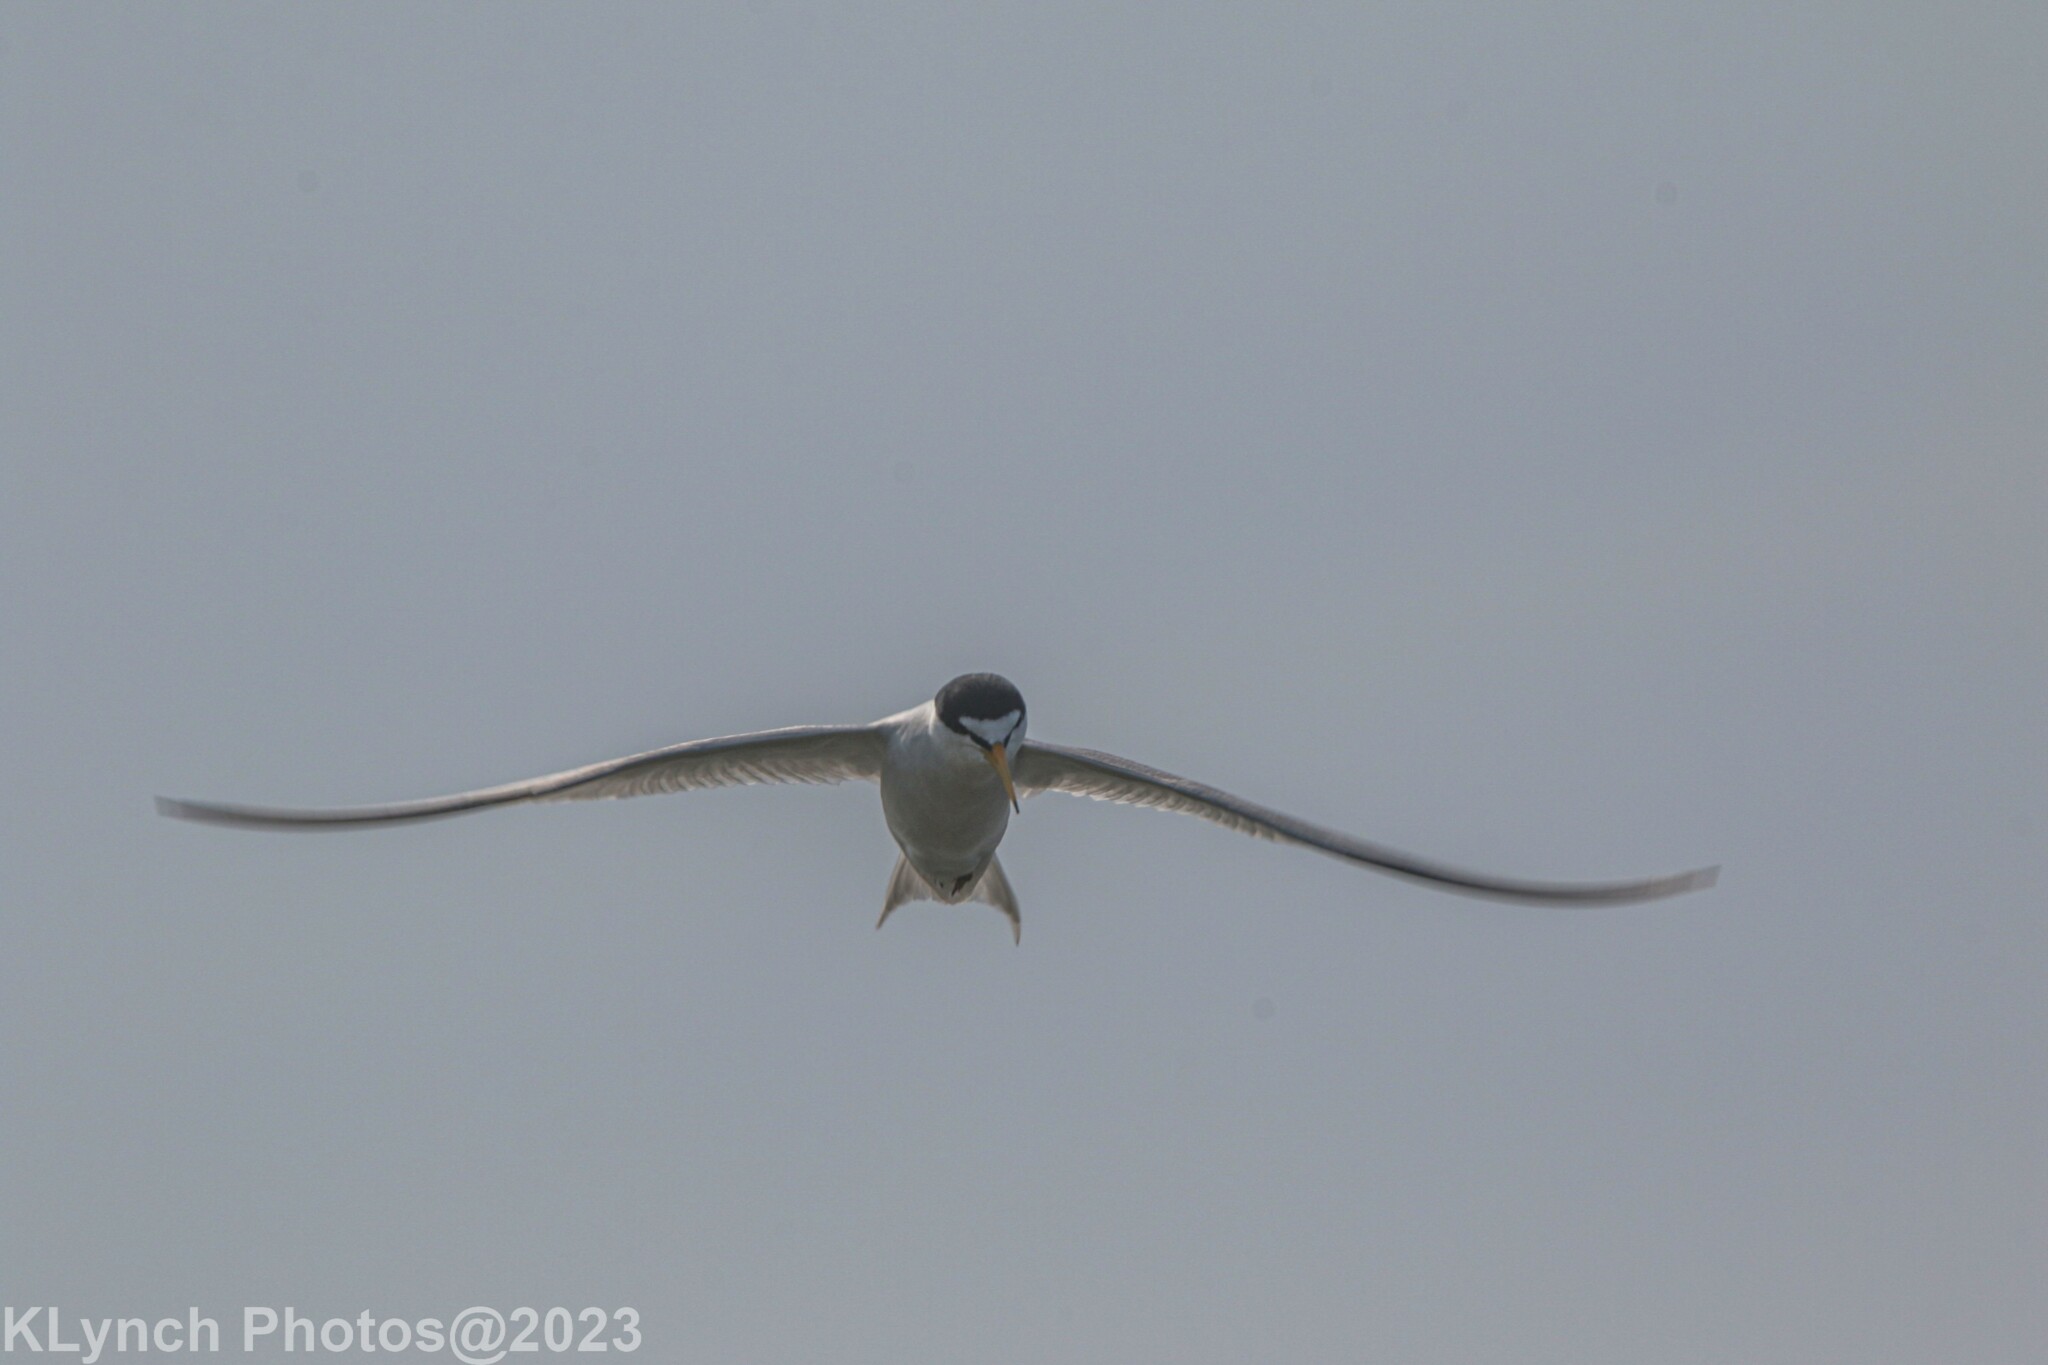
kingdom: Animalia
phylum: Chordata
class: Aves
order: Charadriiformes
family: Laridae
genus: Sternula
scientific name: Sternula antillarum
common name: Least tern
